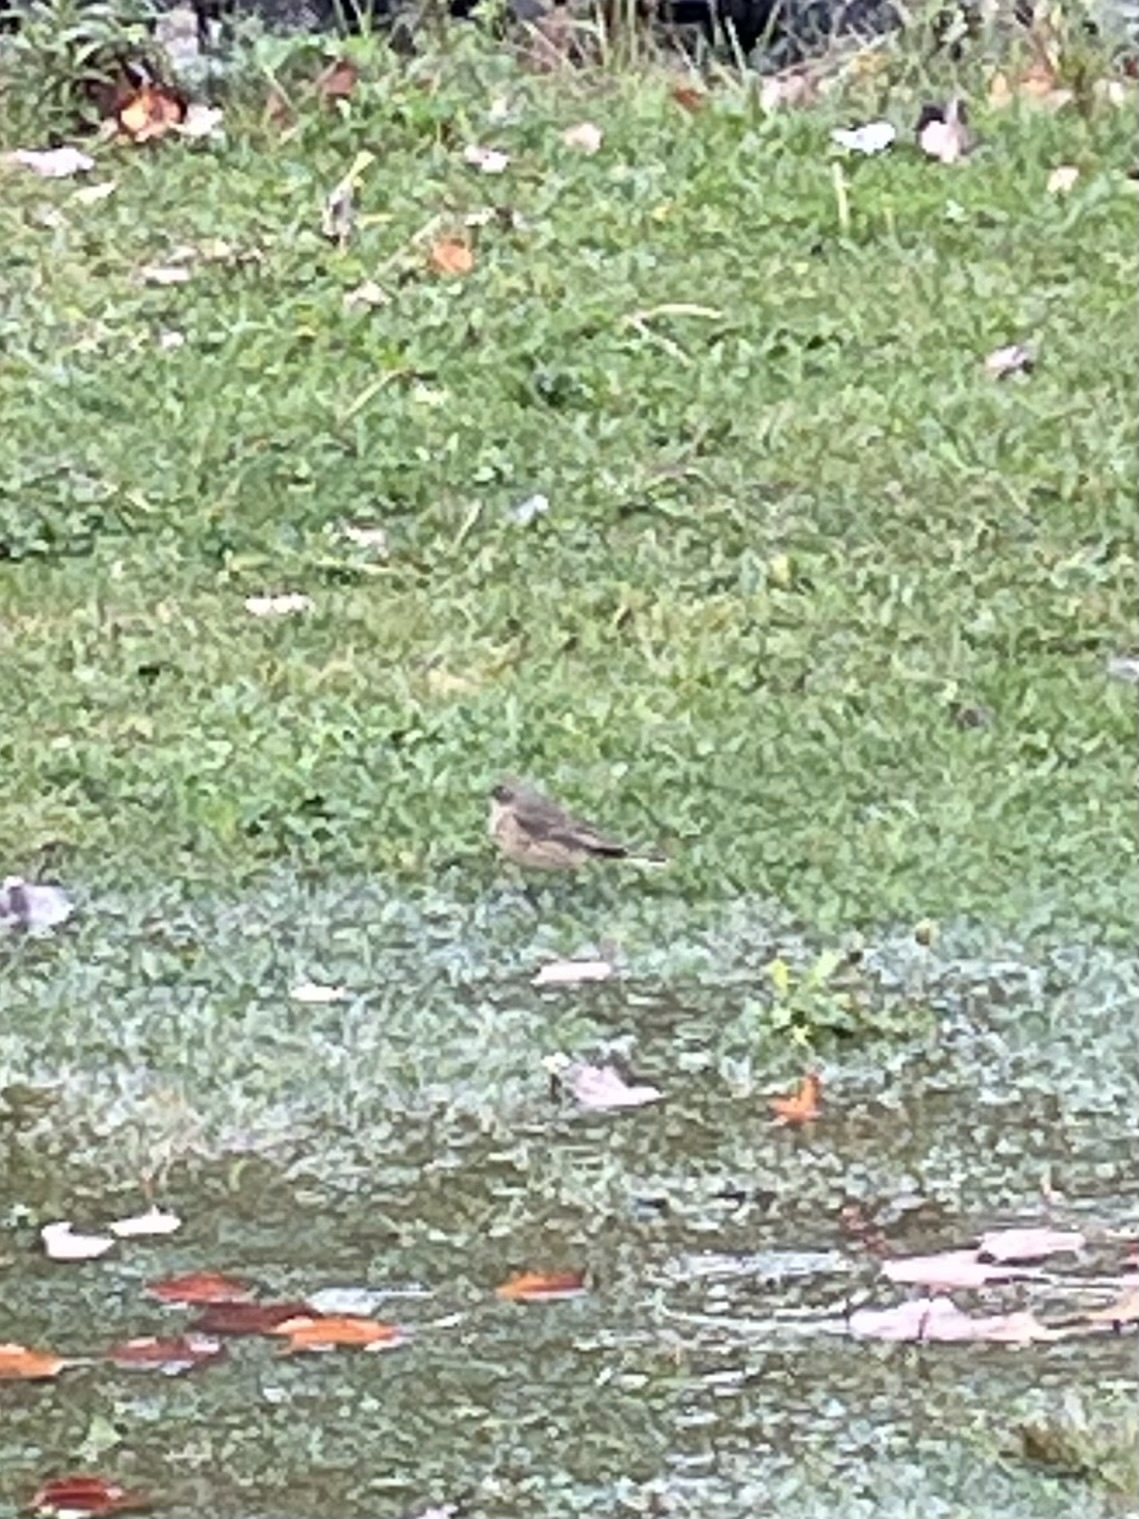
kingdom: Animalia
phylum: Chordata
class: Aves
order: Passeriformes
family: Motacillidae
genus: Anthus
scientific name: Anthus rubescens
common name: Buff-bellied pipit
